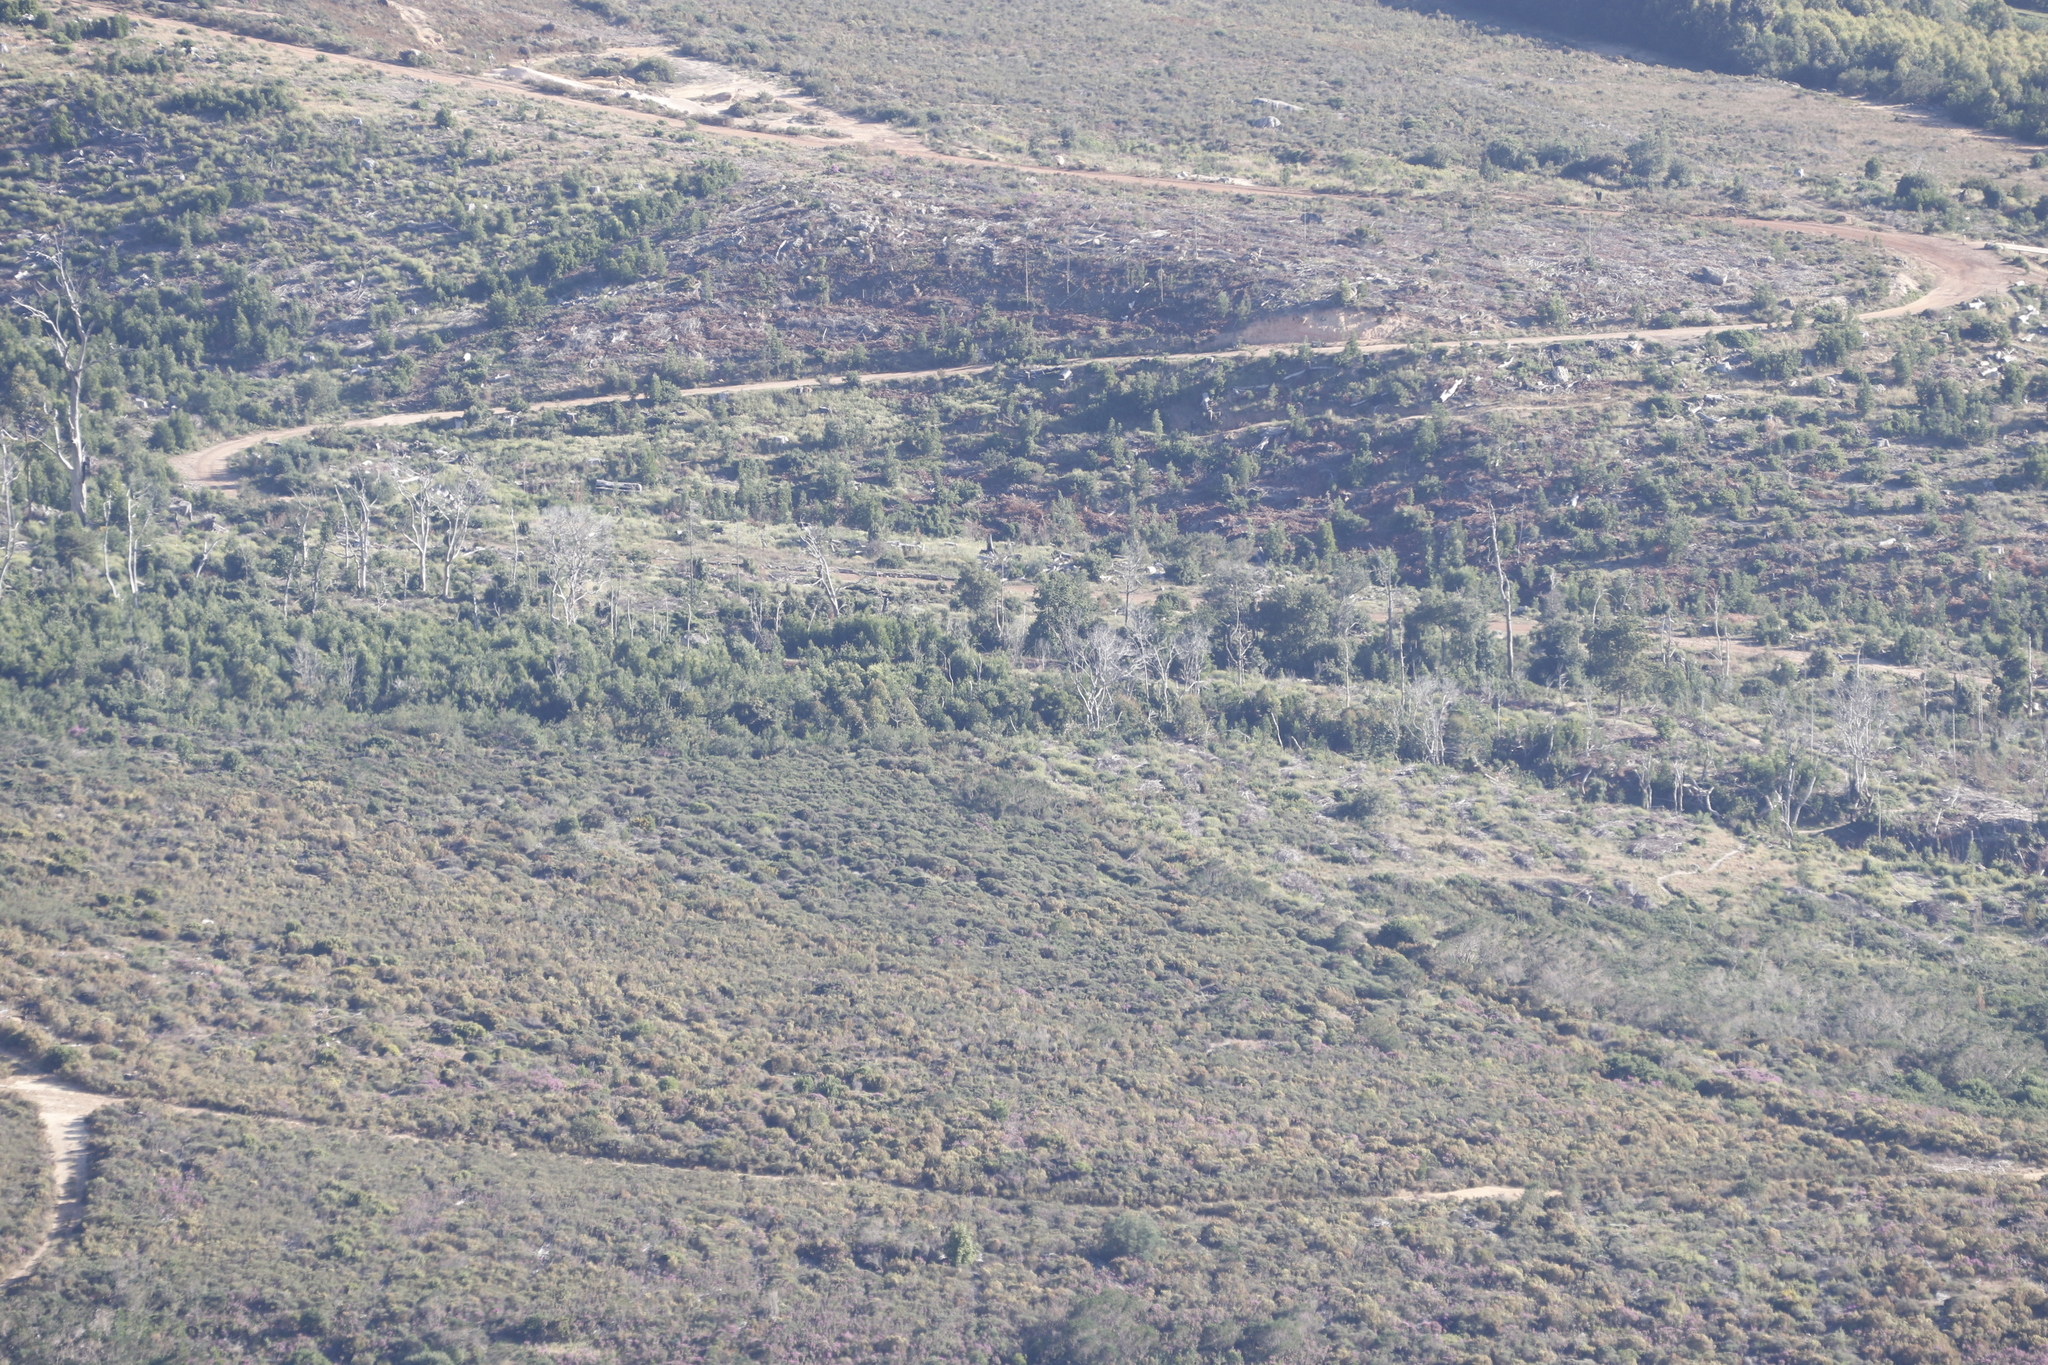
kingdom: Plantae
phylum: Tracheophyta
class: Magnoliopsida
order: Fabales
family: Fabaceae
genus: Acacia
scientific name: Acacia melanoxylon
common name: Blackwood
